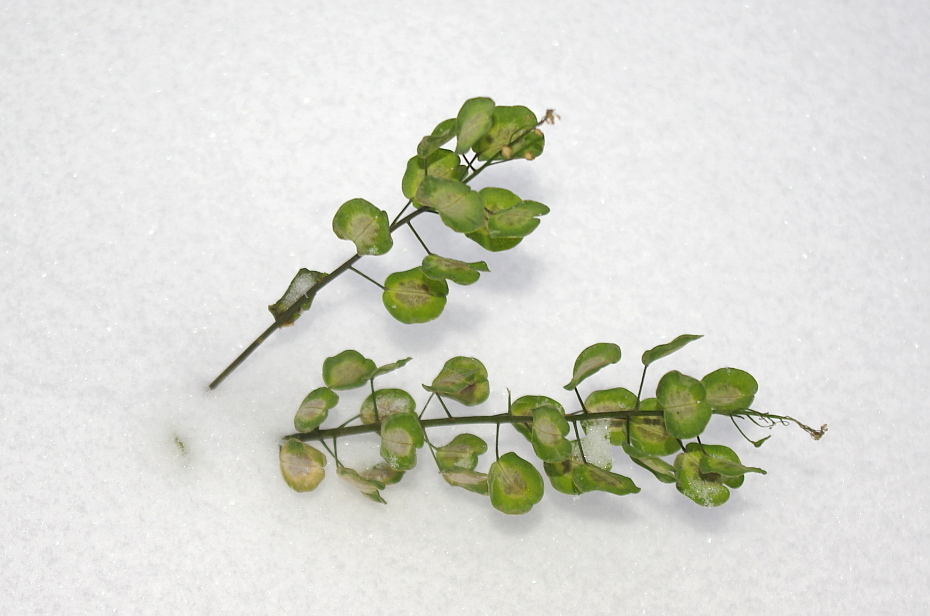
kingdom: Plantae
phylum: Tracheophyta
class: Magnoliopsida
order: Brassicales
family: Brassicaceae
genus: Thlaspi
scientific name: Thlaspi arvense
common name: Field pennycress
